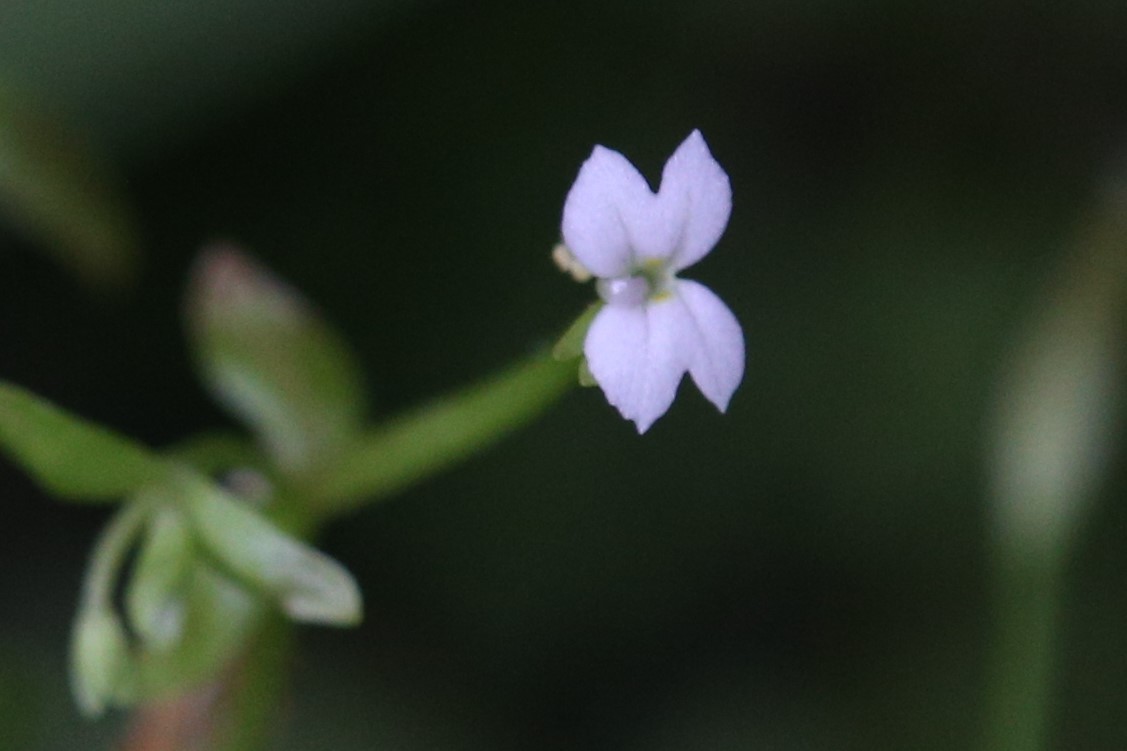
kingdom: Plantae
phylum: Tracheophyta
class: Magnoliopsida
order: Asterales
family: Stylidiaceae
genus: Stylidium
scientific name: Stylidium alsinoides
